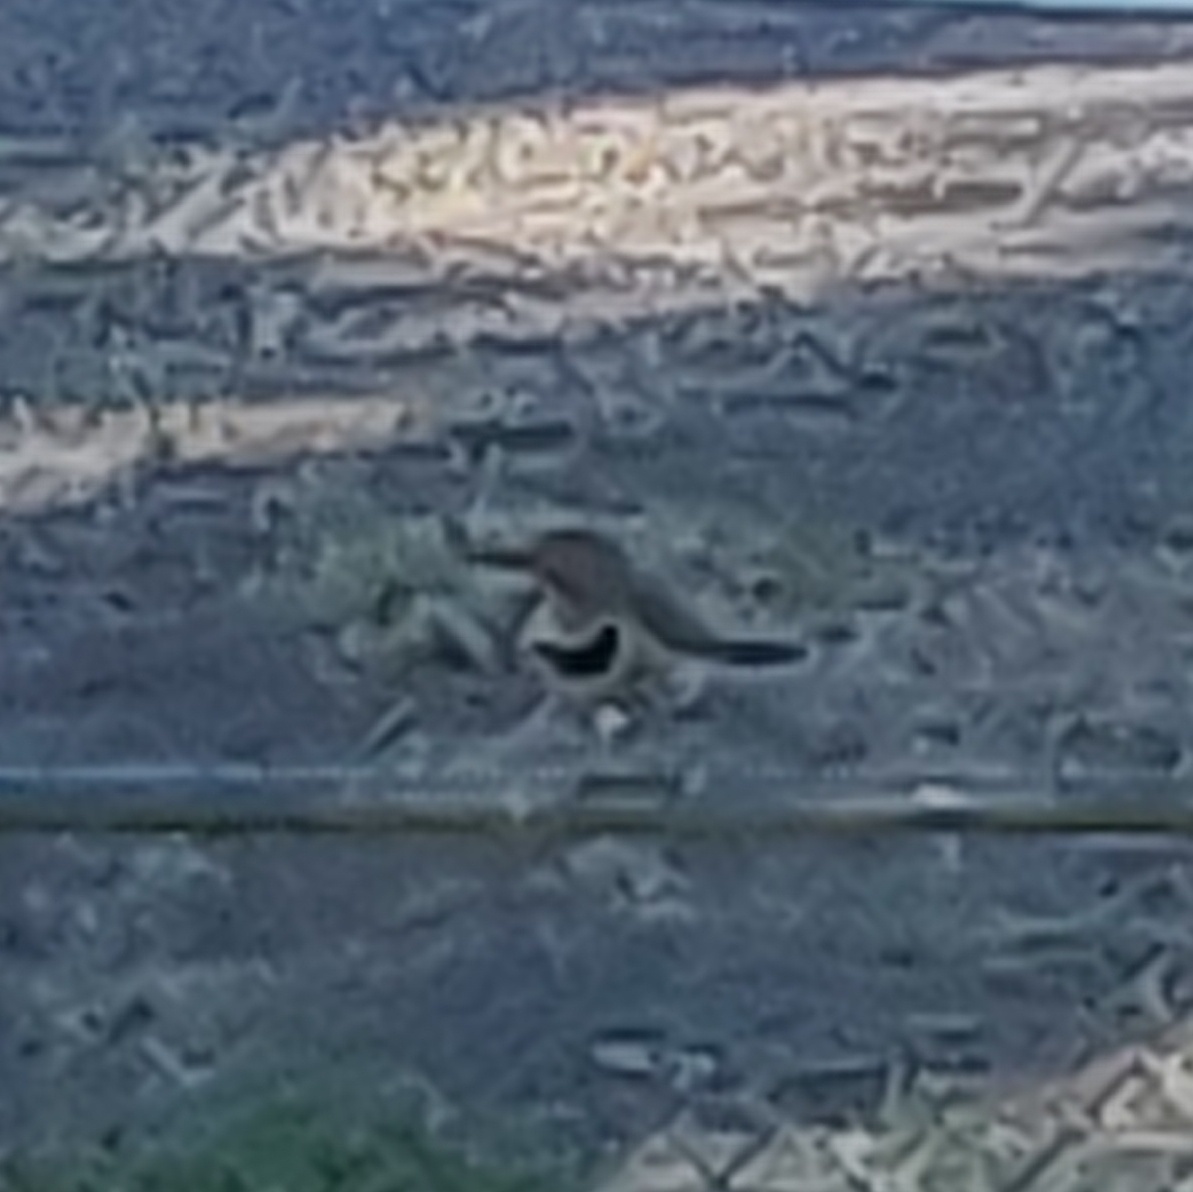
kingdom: Animalia
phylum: Chordata
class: Aves
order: Piciformes
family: Picidae
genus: Colaptes
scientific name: Colaptes auratus
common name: Northern flicker
